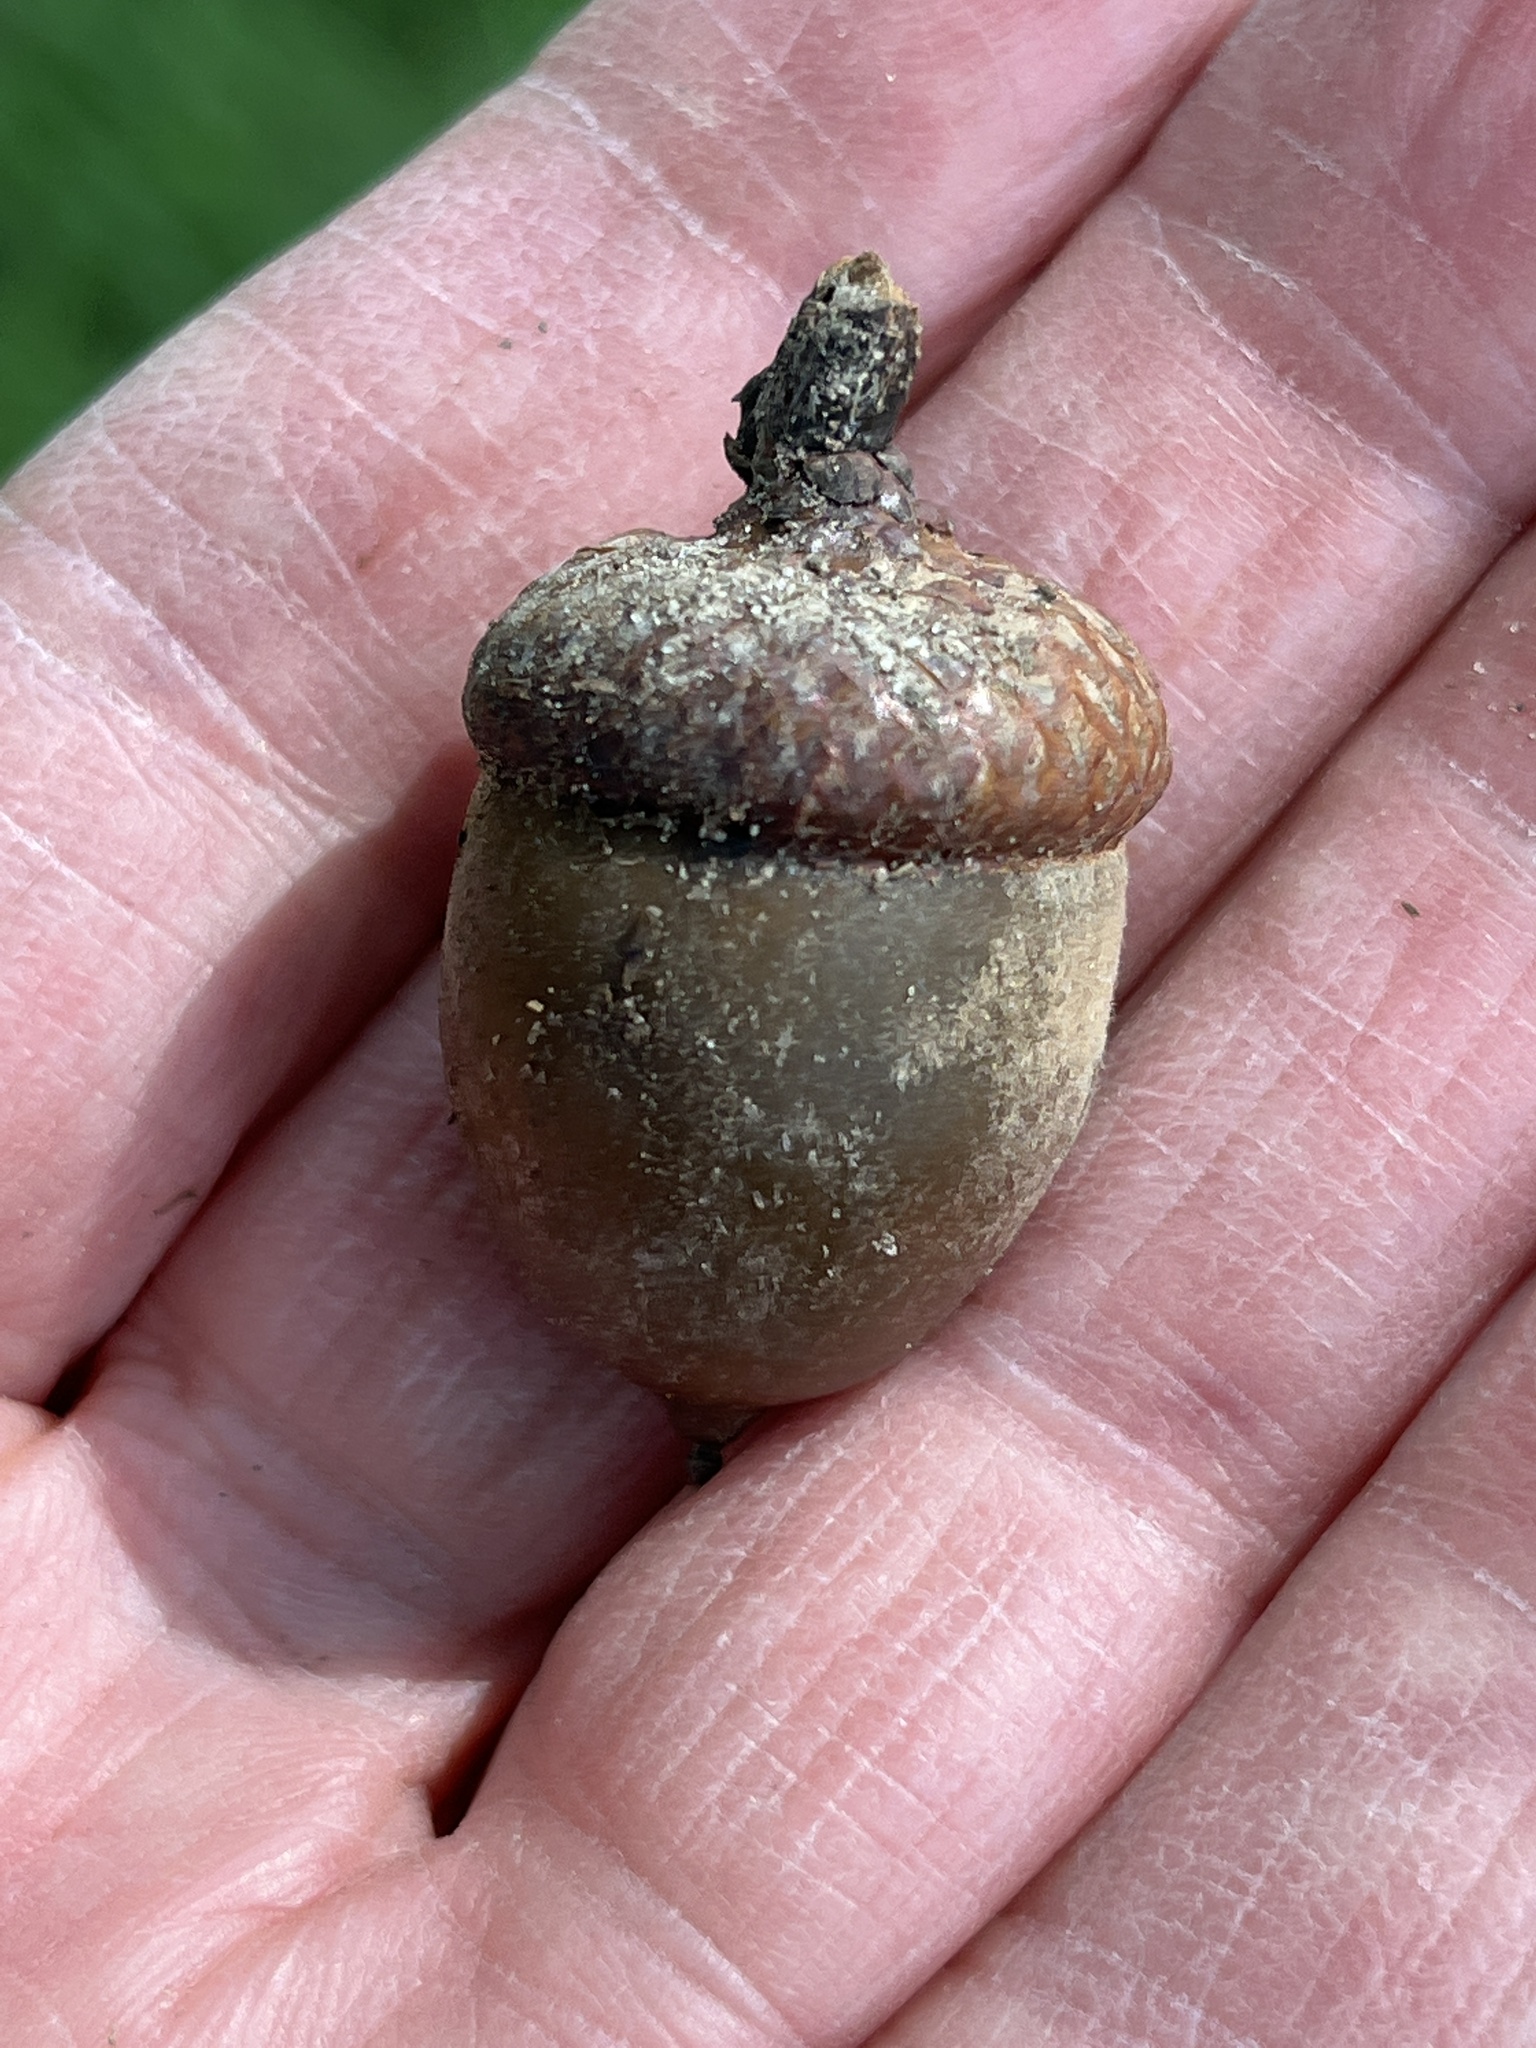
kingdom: Plantae
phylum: Tracheophyta
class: Magnoliopsida
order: Fagales
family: Fagaceae
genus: Quercus
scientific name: Quercus rubra
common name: Red oak
